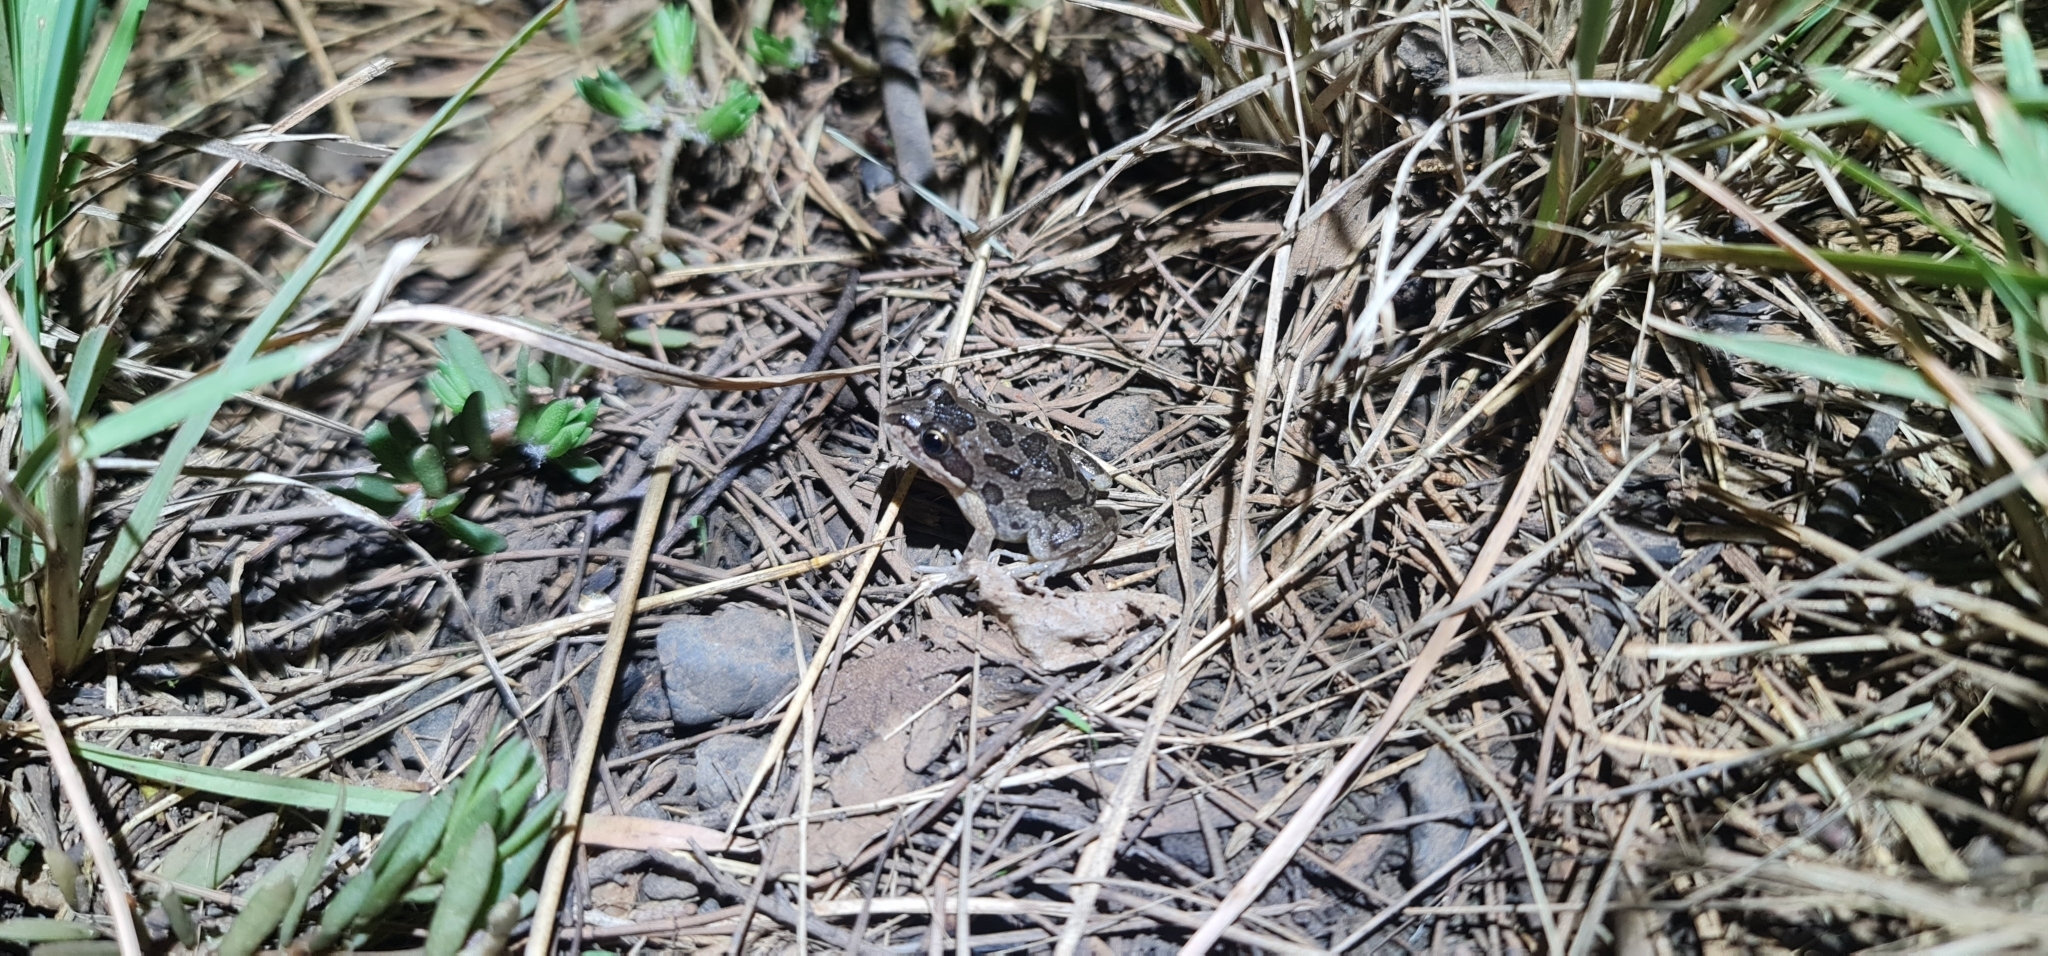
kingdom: Animalia
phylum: Chordata
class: Amphibia
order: Anura
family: Limnodynastidae
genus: Limnodynastes
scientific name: Limnodynastes tasmaniensis
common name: Spotted marsh frog
